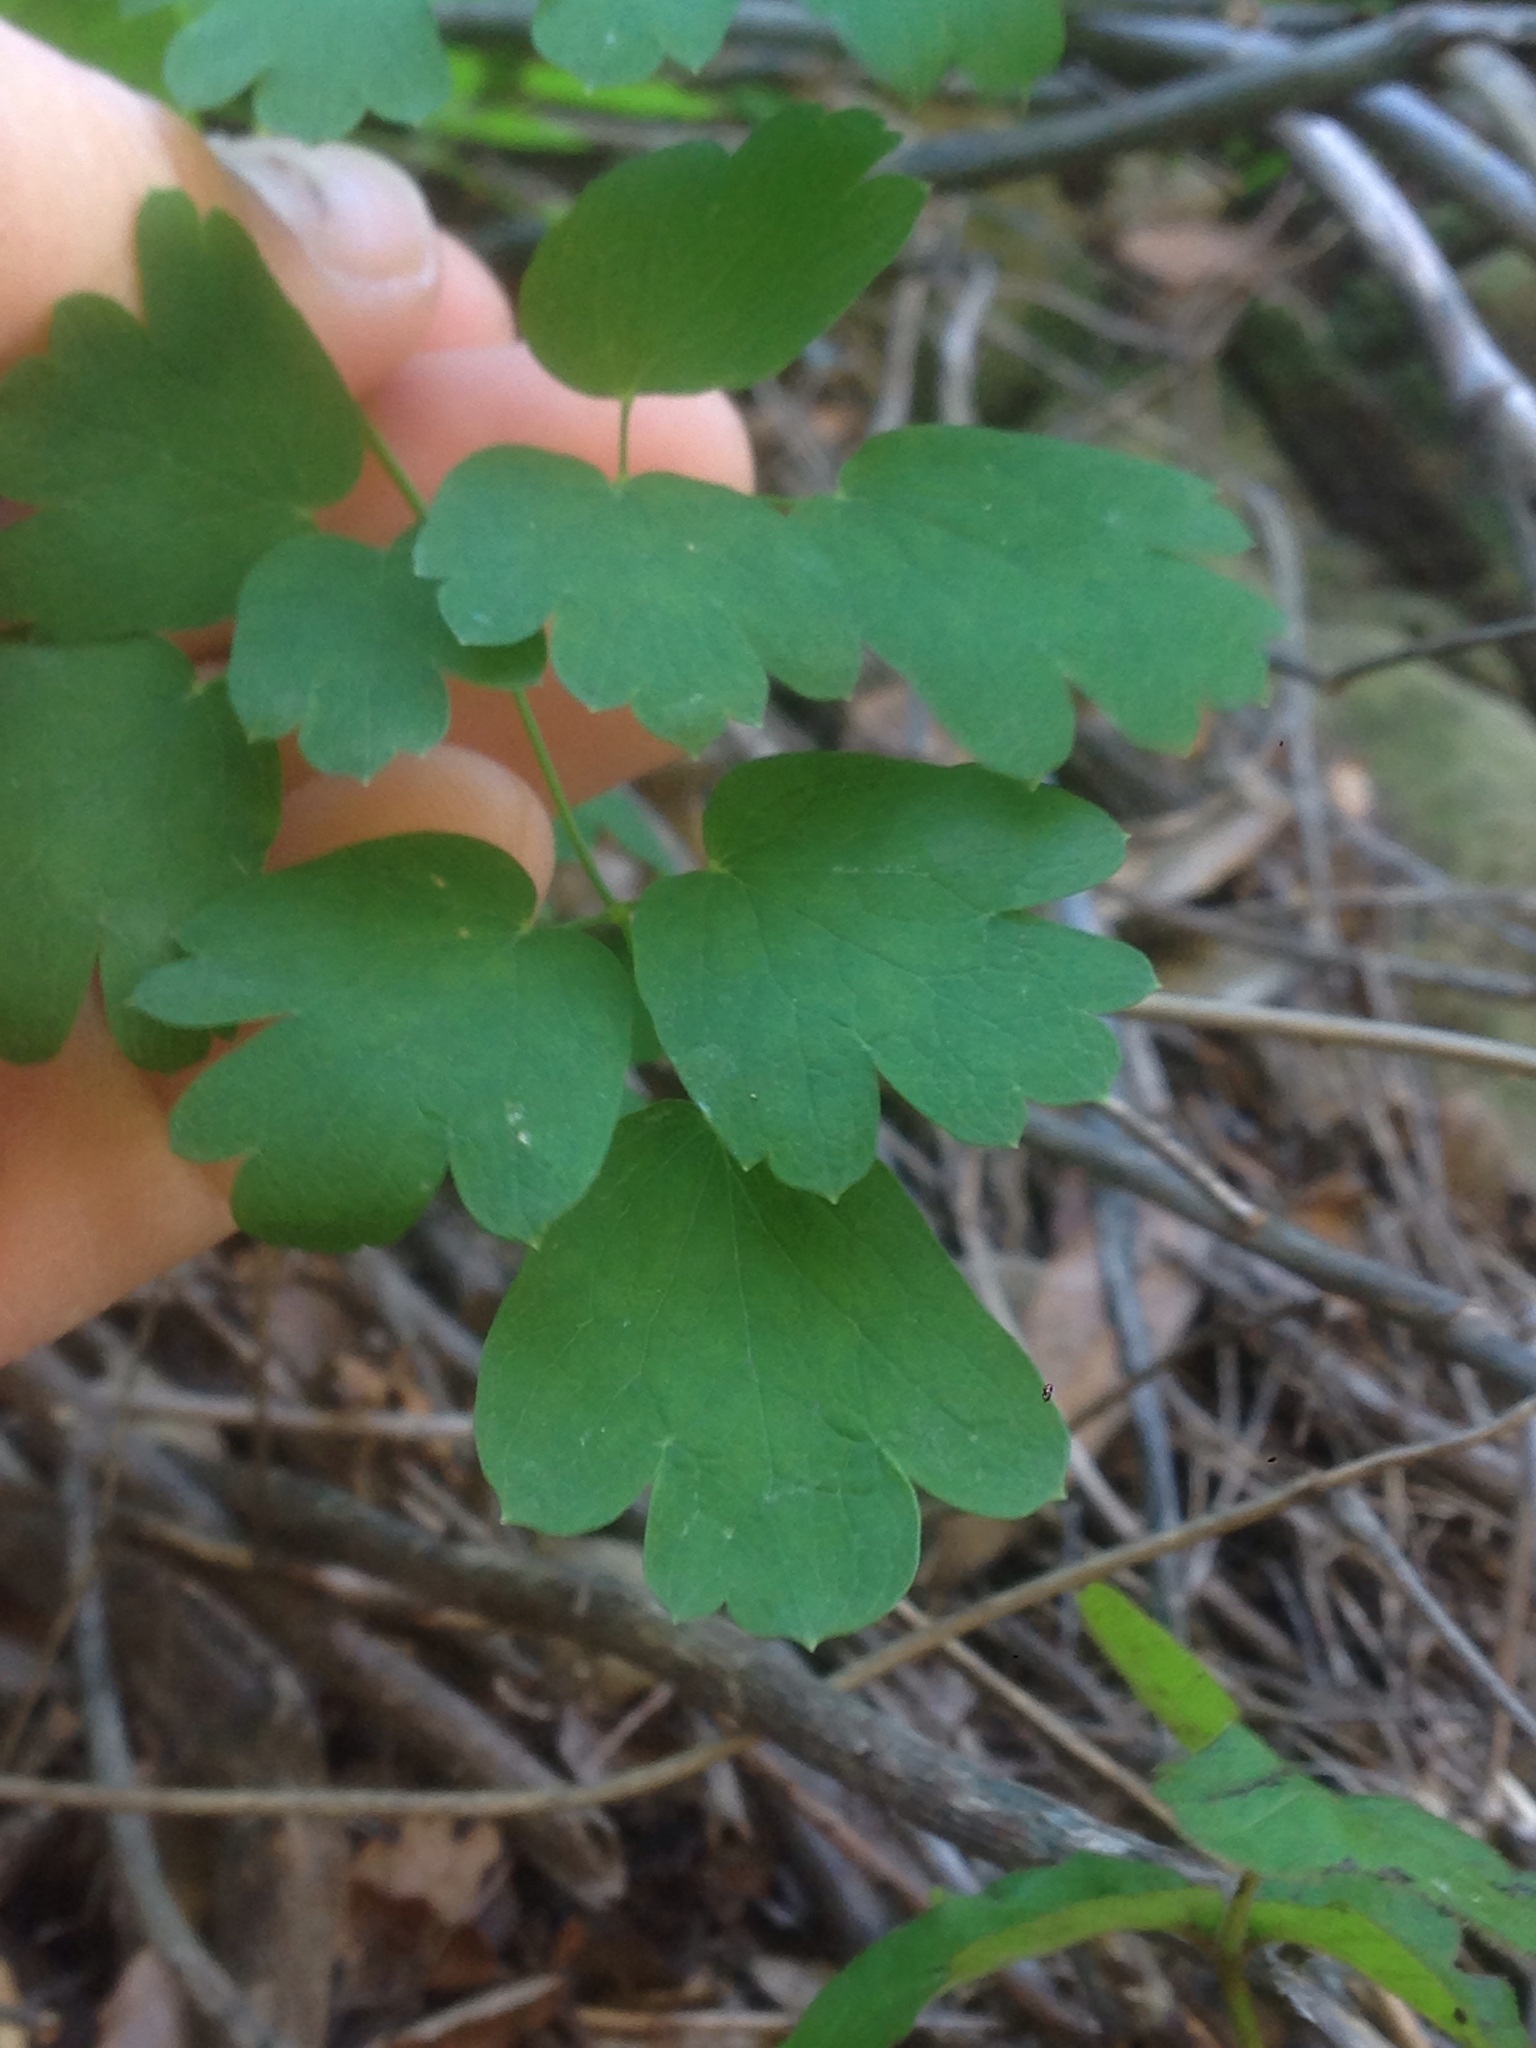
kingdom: Plantae
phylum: Tracheophyta
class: Magnoliopsida
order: Ranunculales
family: Ranunculaceae
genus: Thalictrum
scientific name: Thalictrum fendleri
